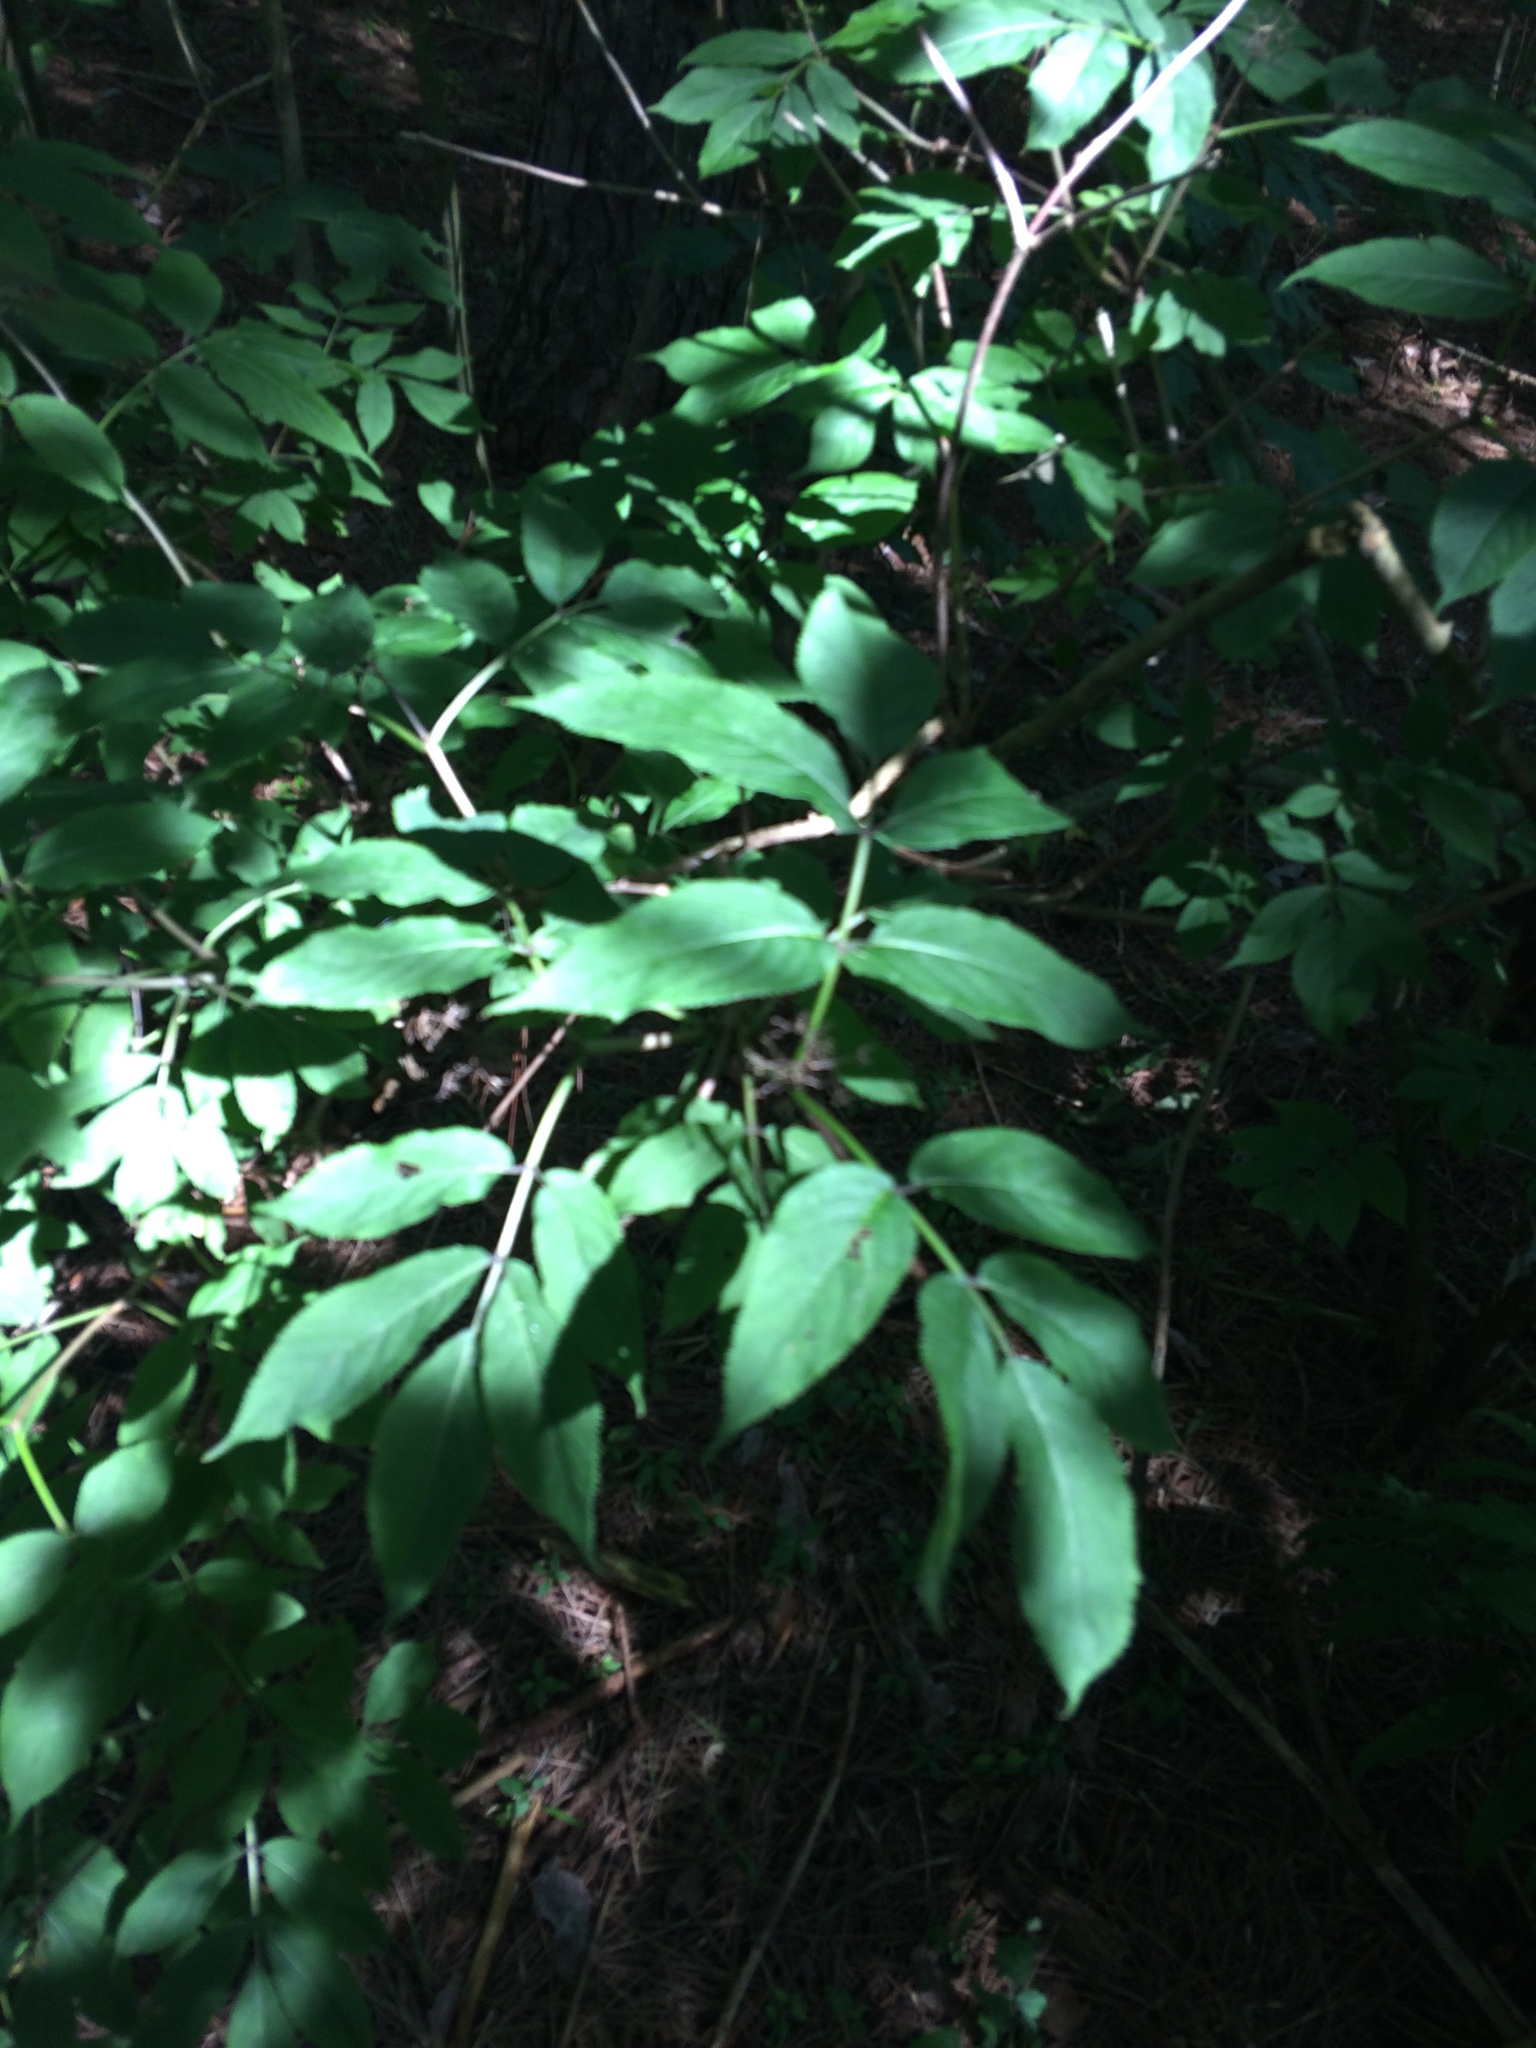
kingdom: Plantae
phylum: Tracheophyta
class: Magnoliopsida
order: Dipsacales
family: Viburnaceae
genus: Sambucus
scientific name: Sambucus
